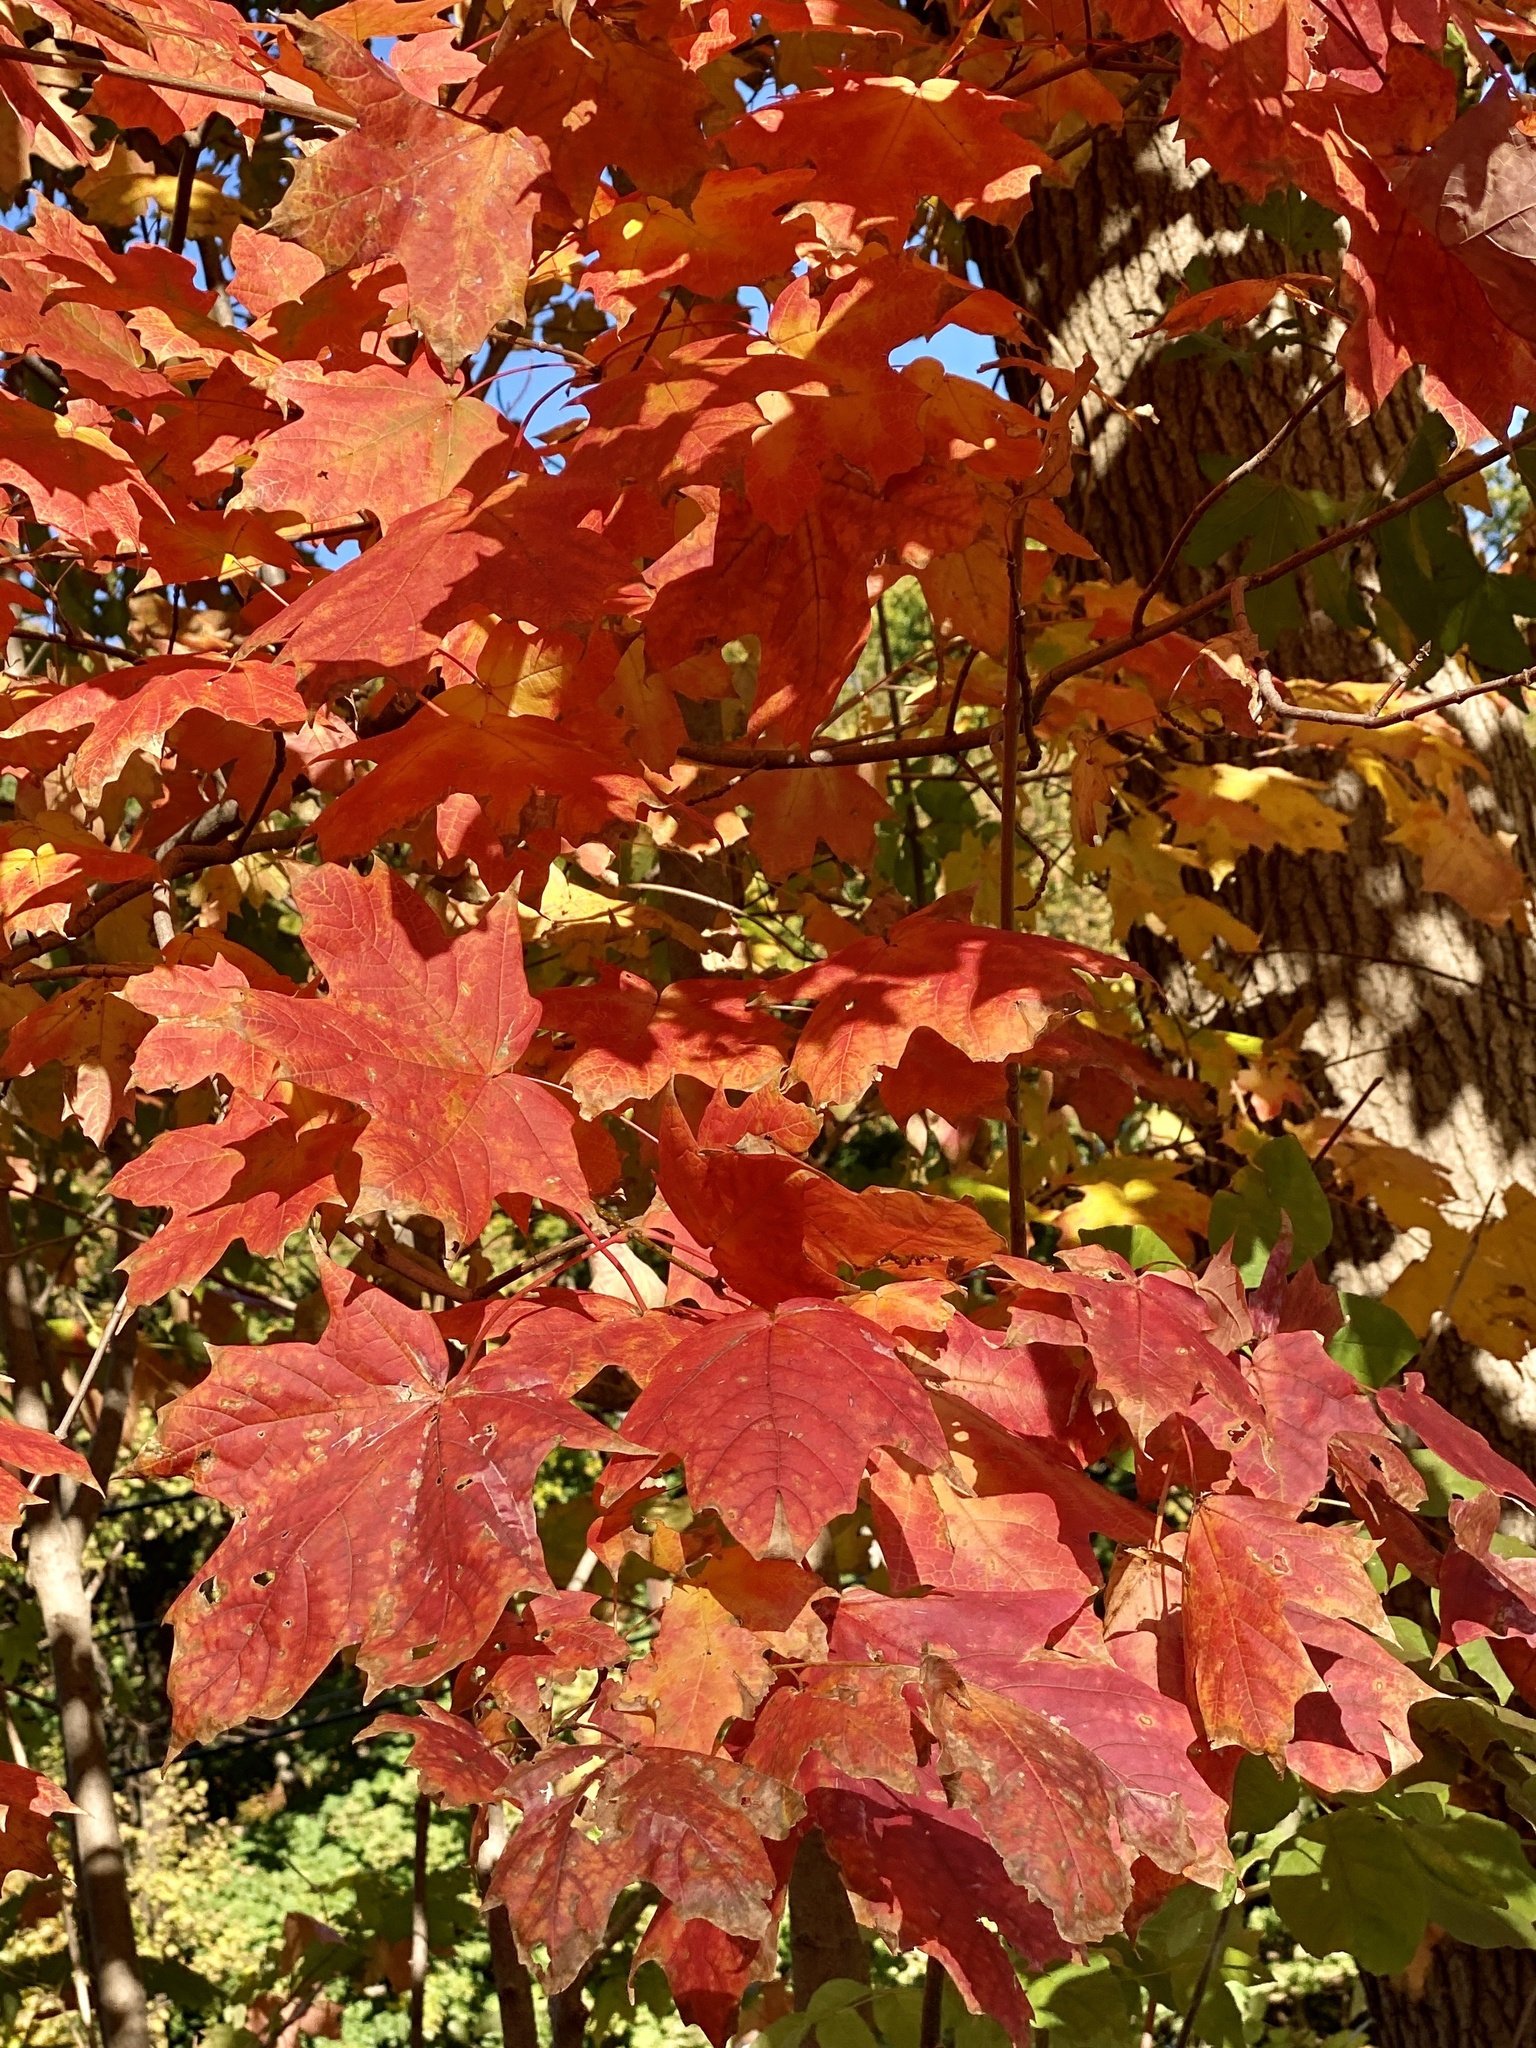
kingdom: Plantae
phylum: Tracheophyta
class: Magnoliopsida
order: Sapindales
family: Sapindaceae
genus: Acer
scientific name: Acer saccharum
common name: Sugar maple
